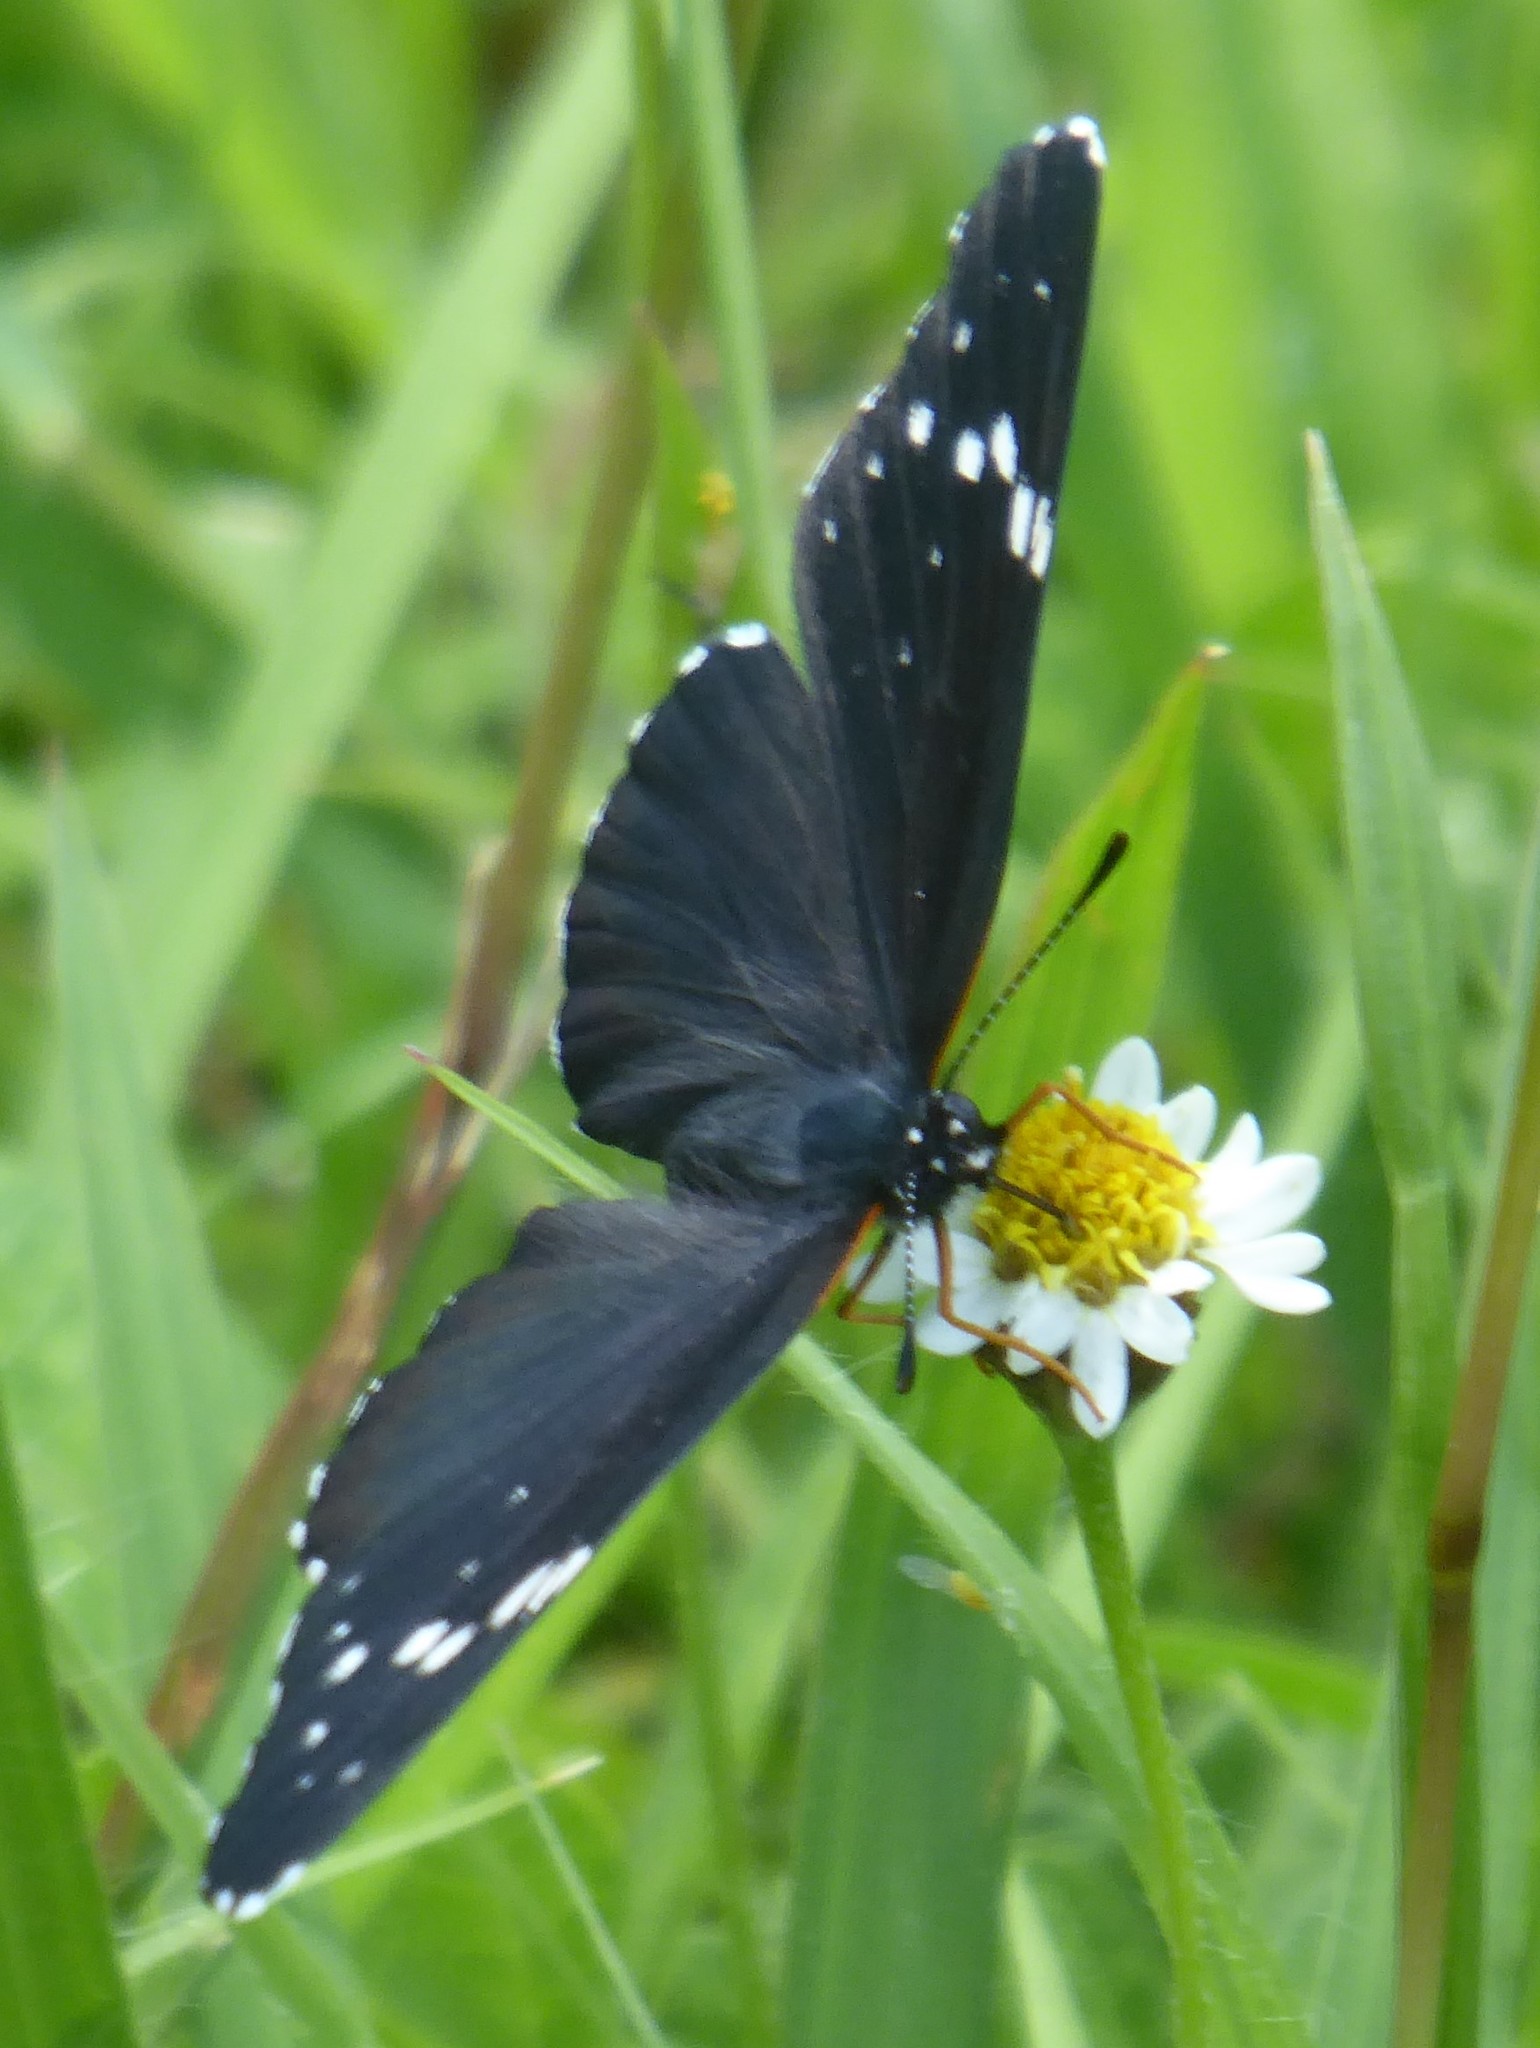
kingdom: Animalia
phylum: Arthropoda
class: Insecta
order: Lepidoptera
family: Nymphalidae
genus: Chlosyne
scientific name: Chlosyne rosita
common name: Rosita patch
